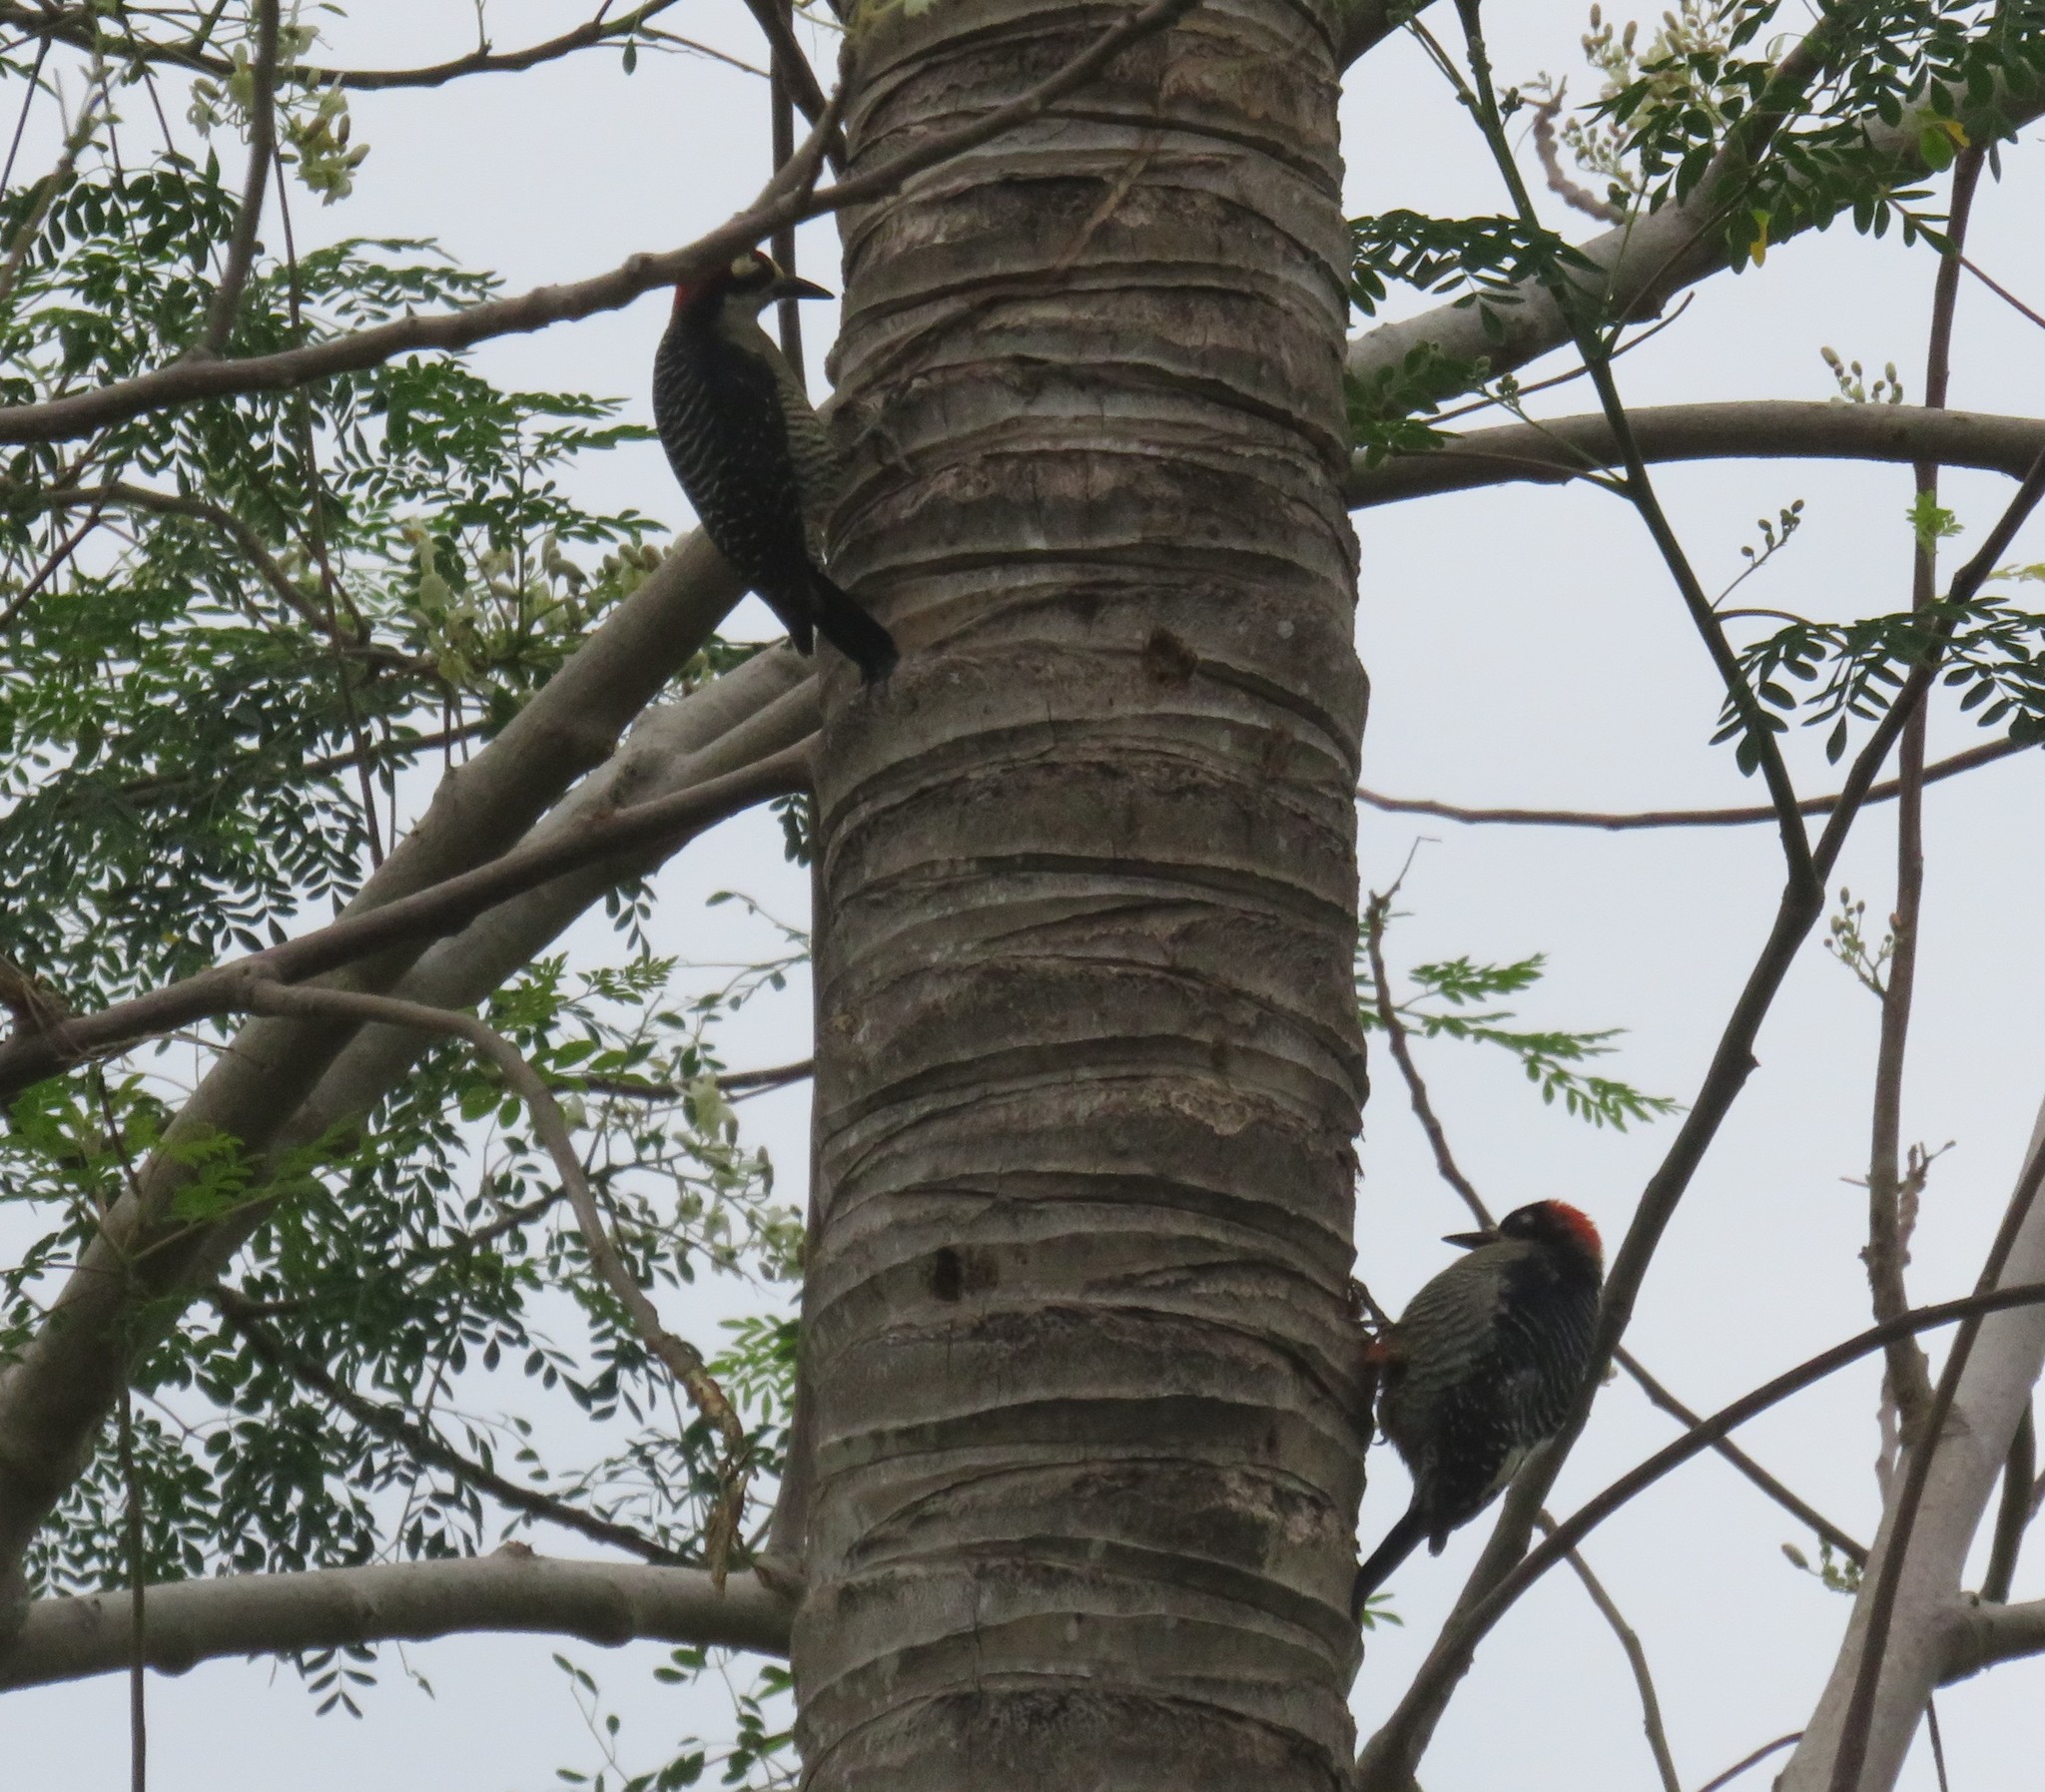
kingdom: Animalia
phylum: Chordata
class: Aves
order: Piciformes
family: Picidae
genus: Melanerpes
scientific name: Melanerpes pucherani
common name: Black-cheeked woodpecker
